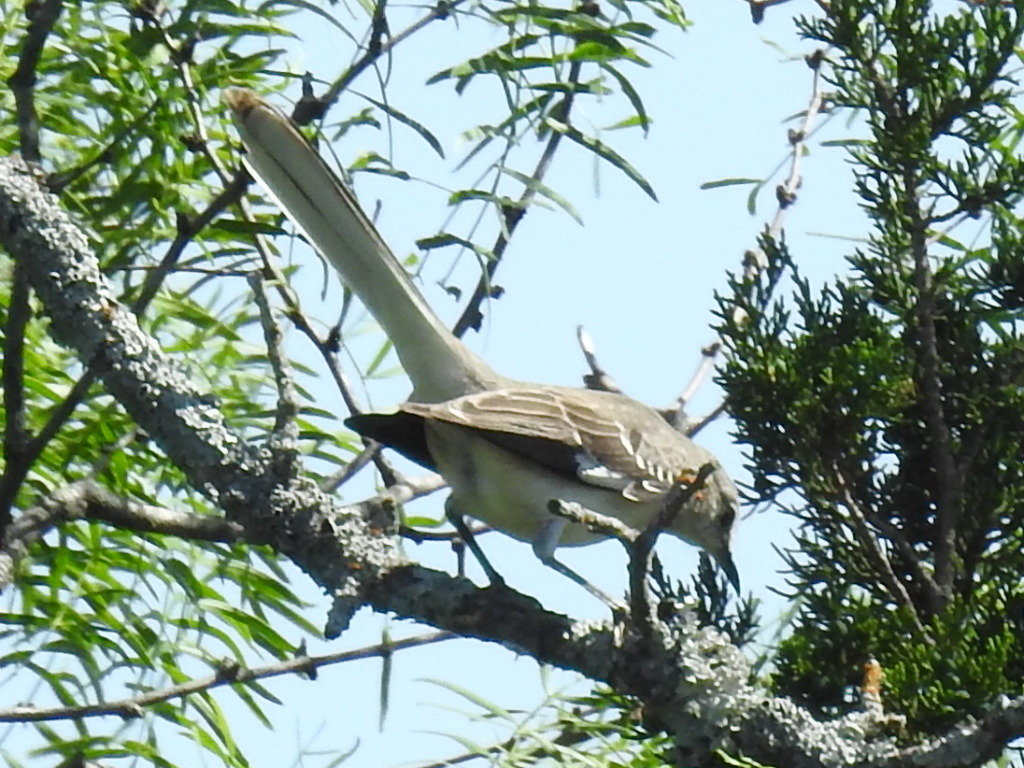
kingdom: Animalia
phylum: Chordata
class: Aves
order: Passeriformes
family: Mimidae
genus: Mimus
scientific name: Mimus polyglottos
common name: Northern mockingbird
